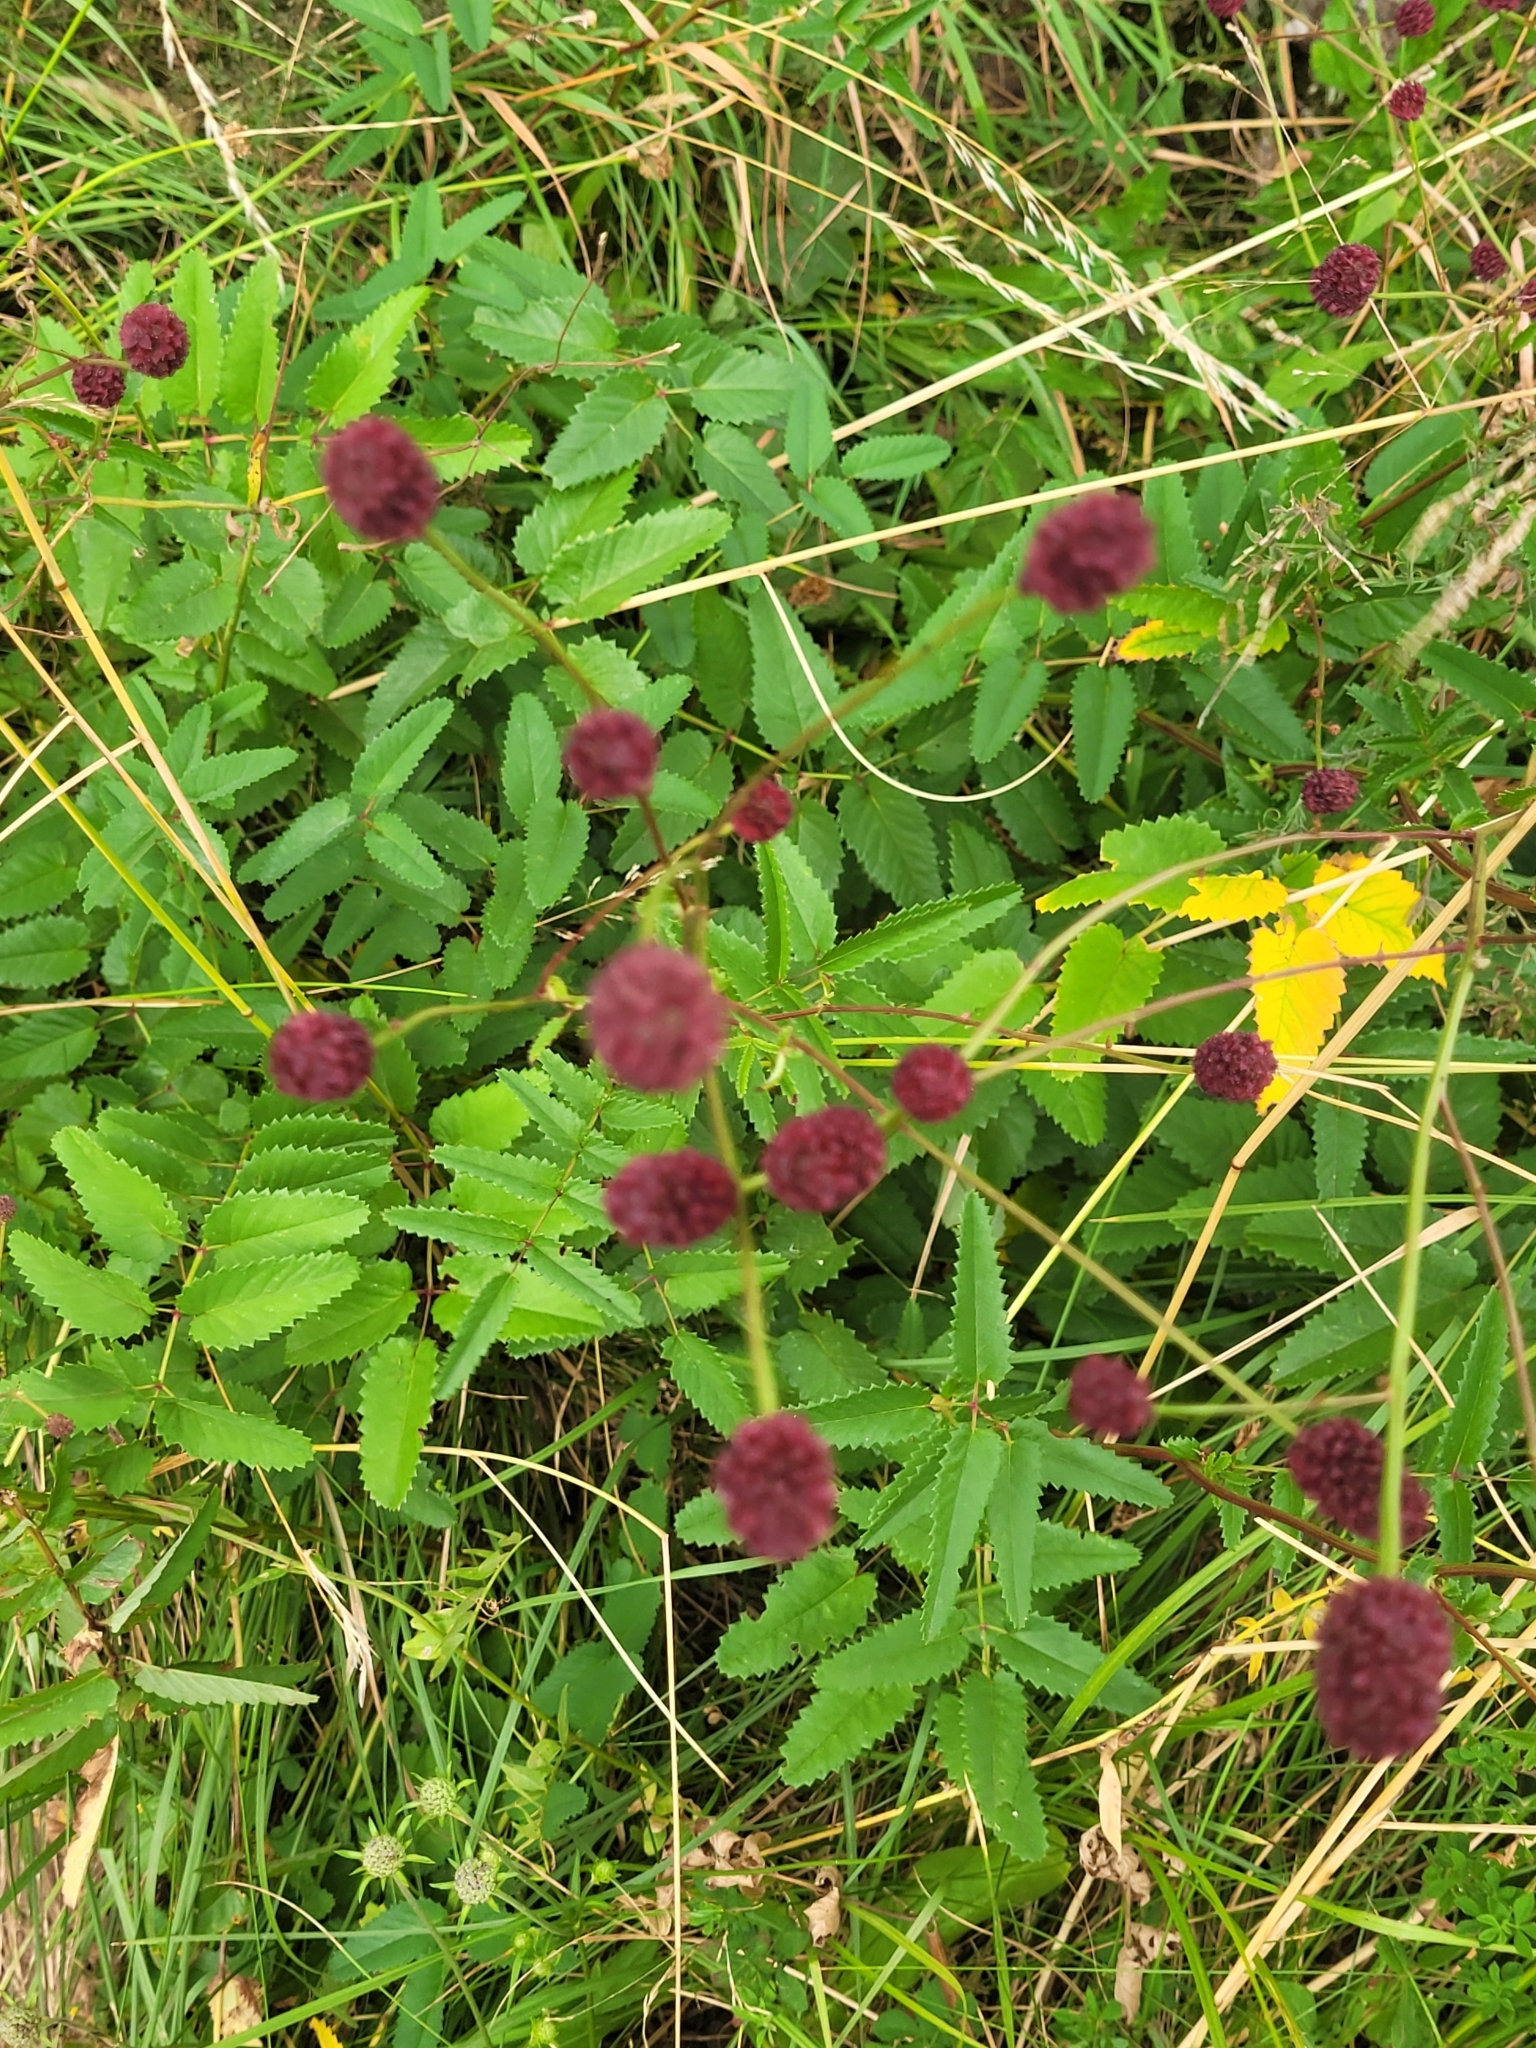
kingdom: Plantae
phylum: Tracheophyta
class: Magnoliopsida
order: Rosales
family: Rosaceae
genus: Sanguisorba
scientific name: Sanguisorba officinalis
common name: Great burnet
